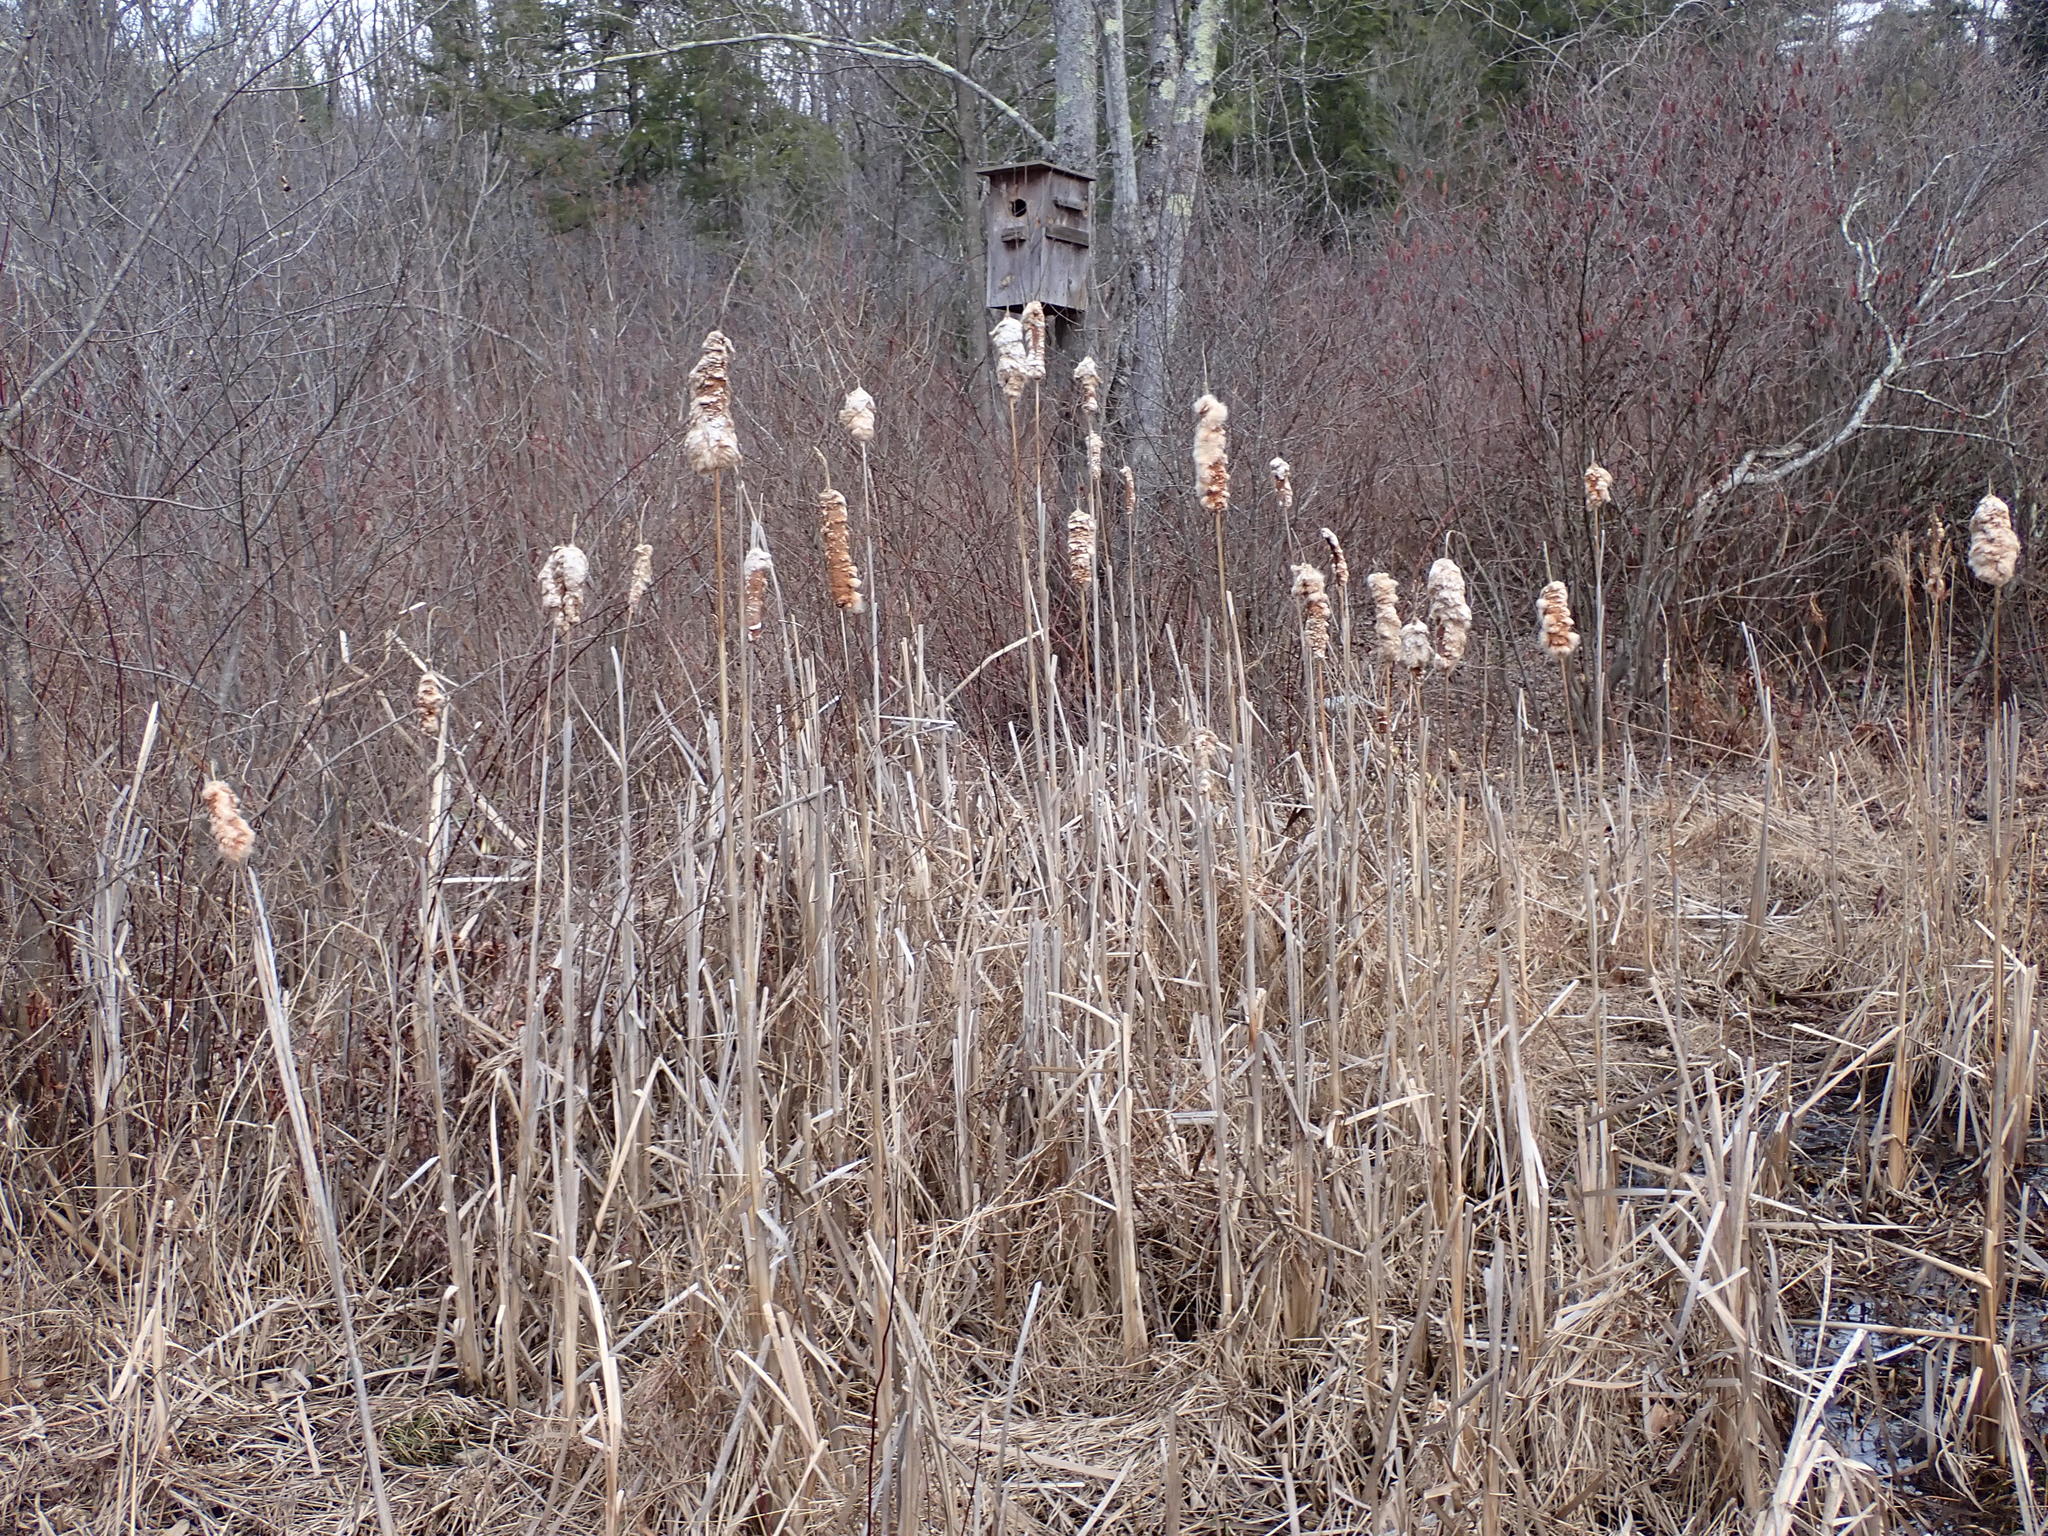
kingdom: Plantae
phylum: Tracheophyta
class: Liliopsida
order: Poales
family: Typhaceae
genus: Typha
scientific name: Typha
